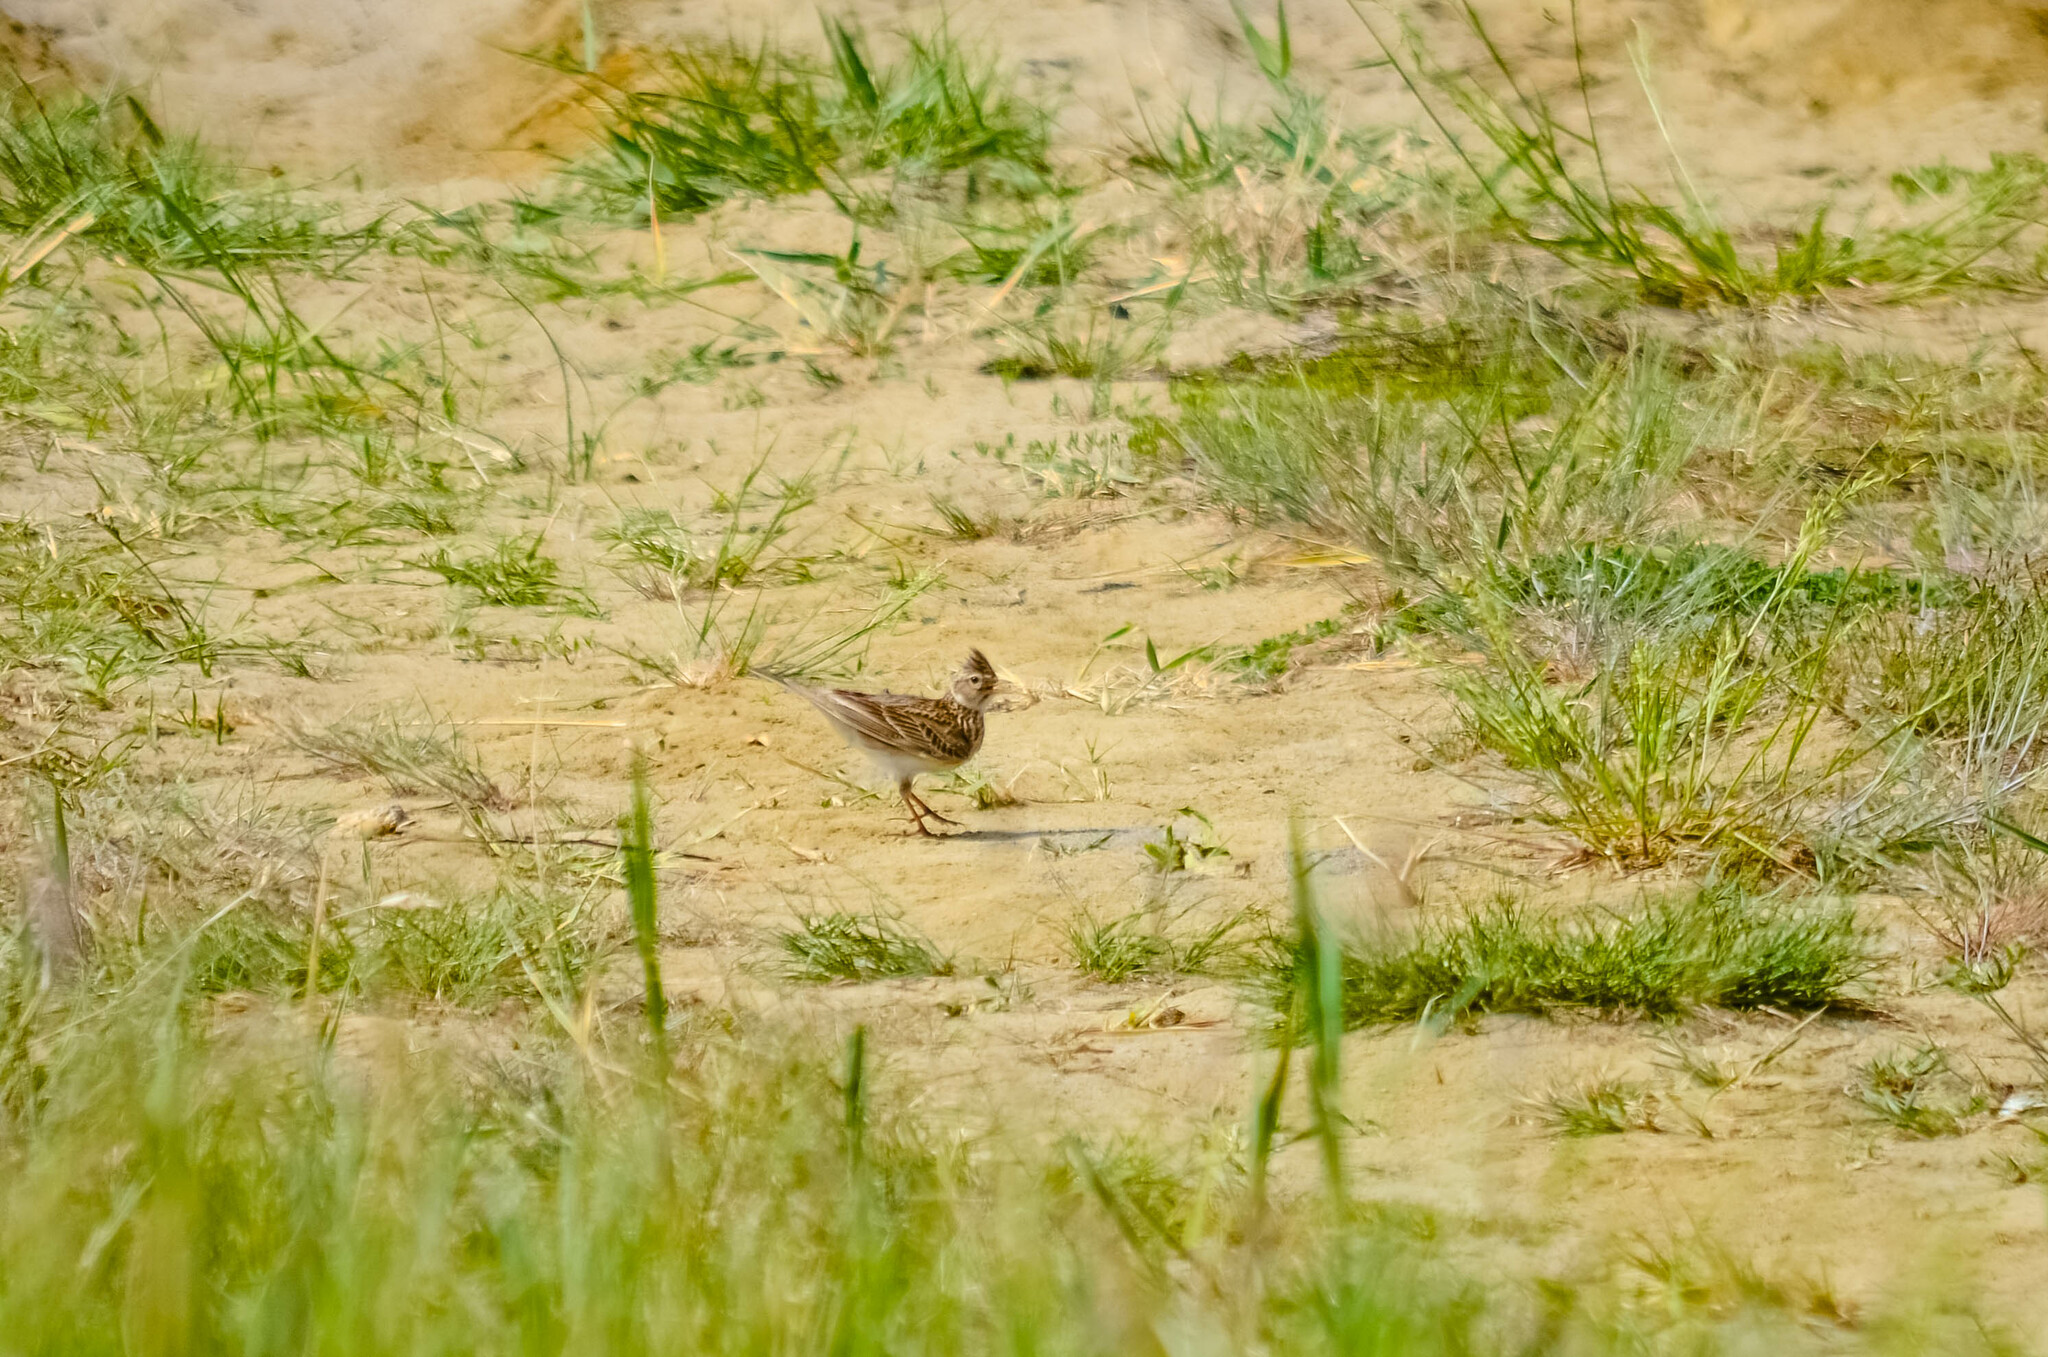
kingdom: Animalia
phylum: Chordata
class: Aves
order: Passeriformes
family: Alaudidae
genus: Alauda
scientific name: Alauda arvensis
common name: Eurasian skylark
